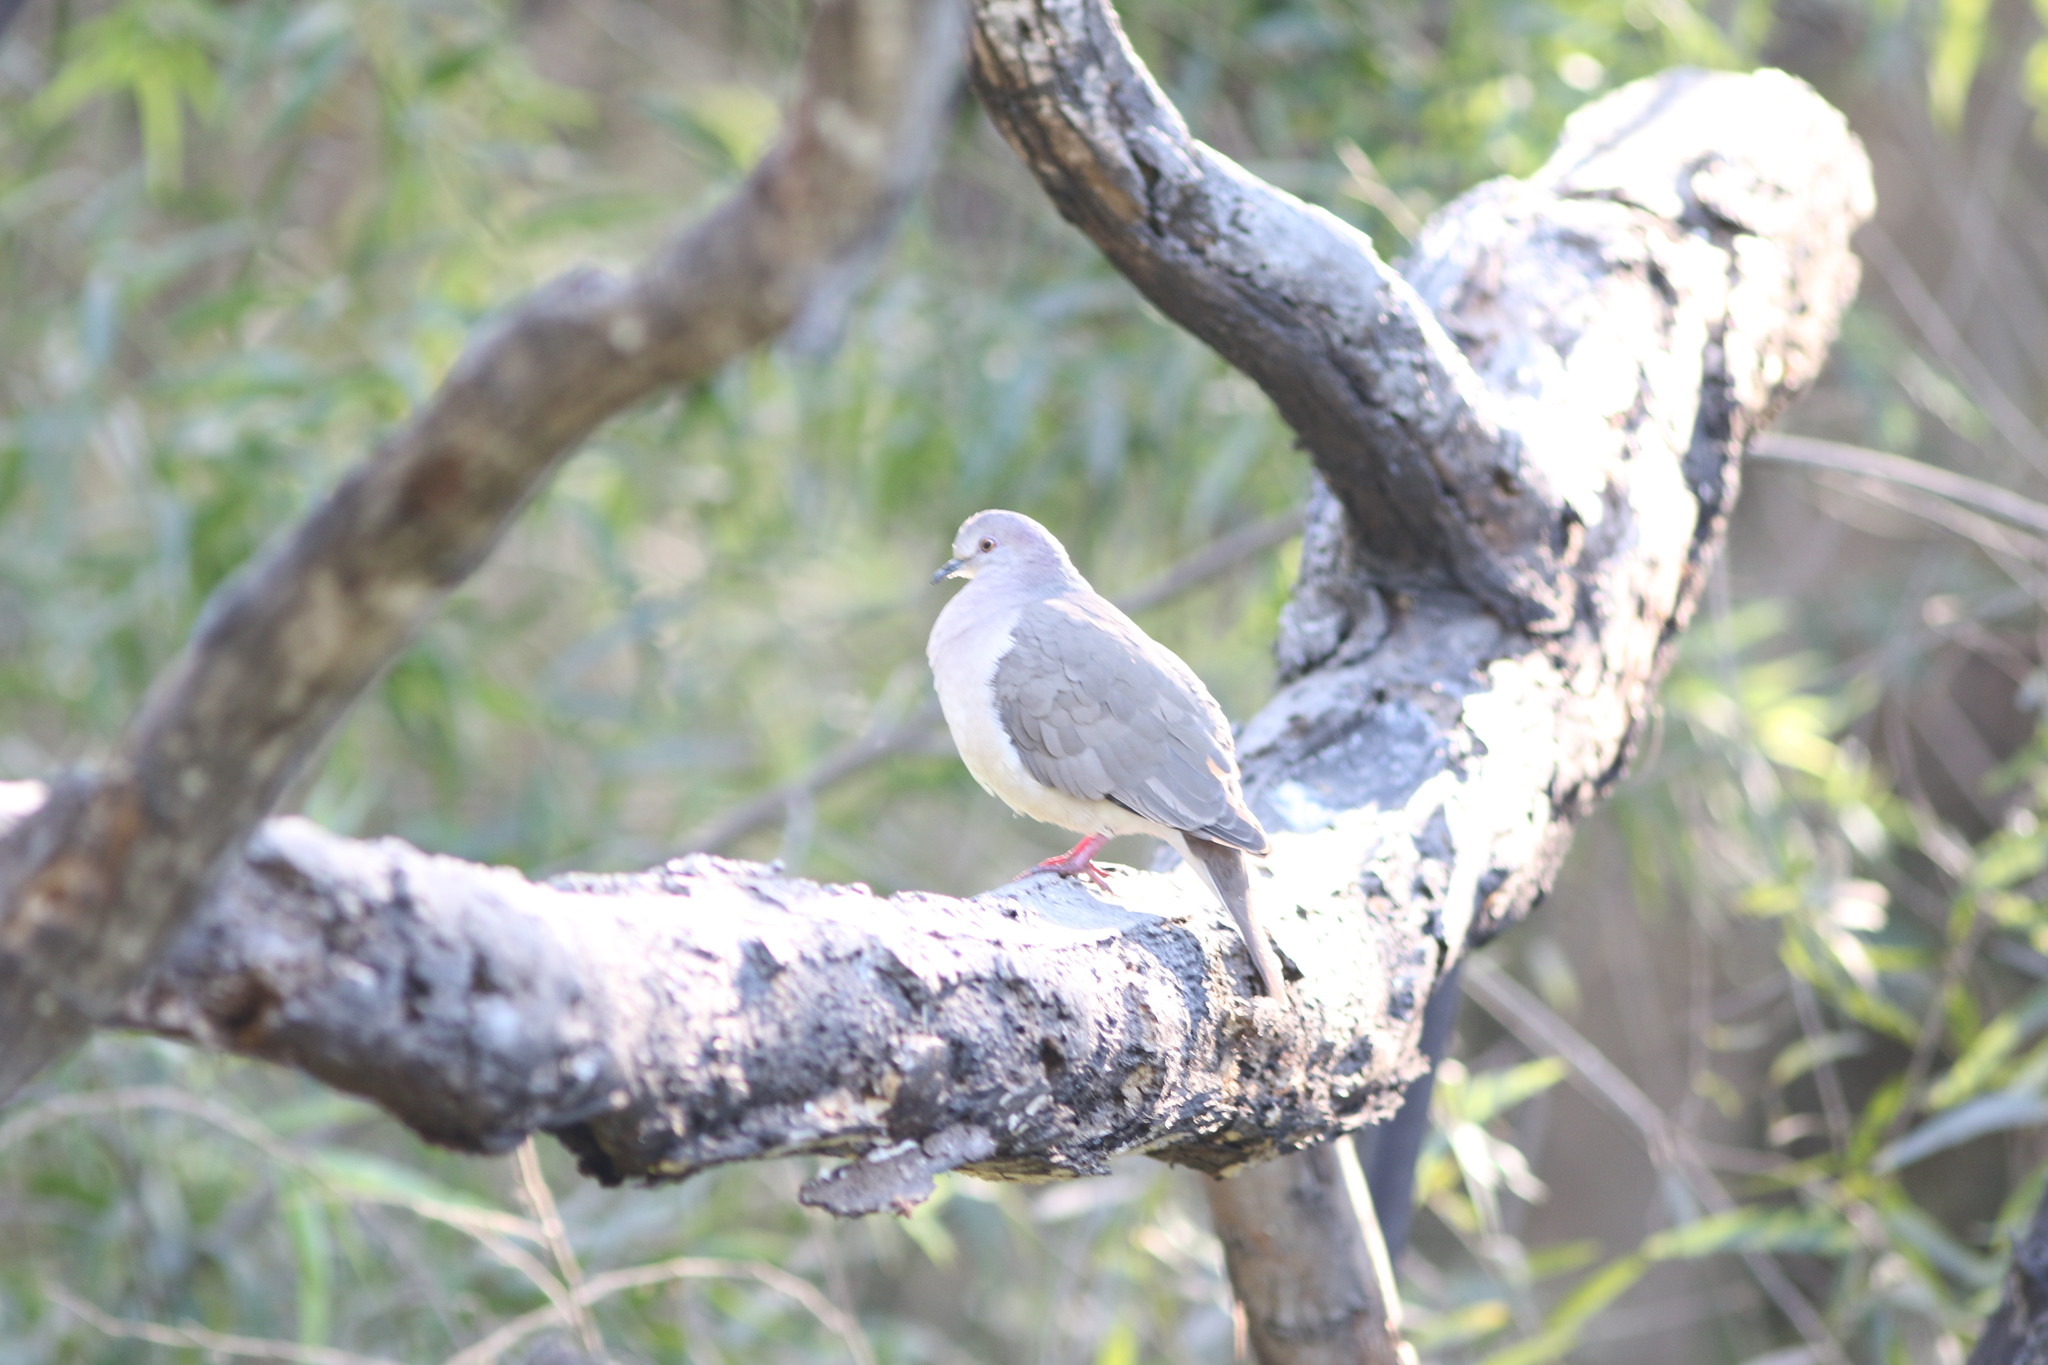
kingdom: Animalia
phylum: Chordata
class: Aves
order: Columbiformes
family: Columbidae
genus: Leptotila
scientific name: Leptotila verreauxi
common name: White-tipped dove
